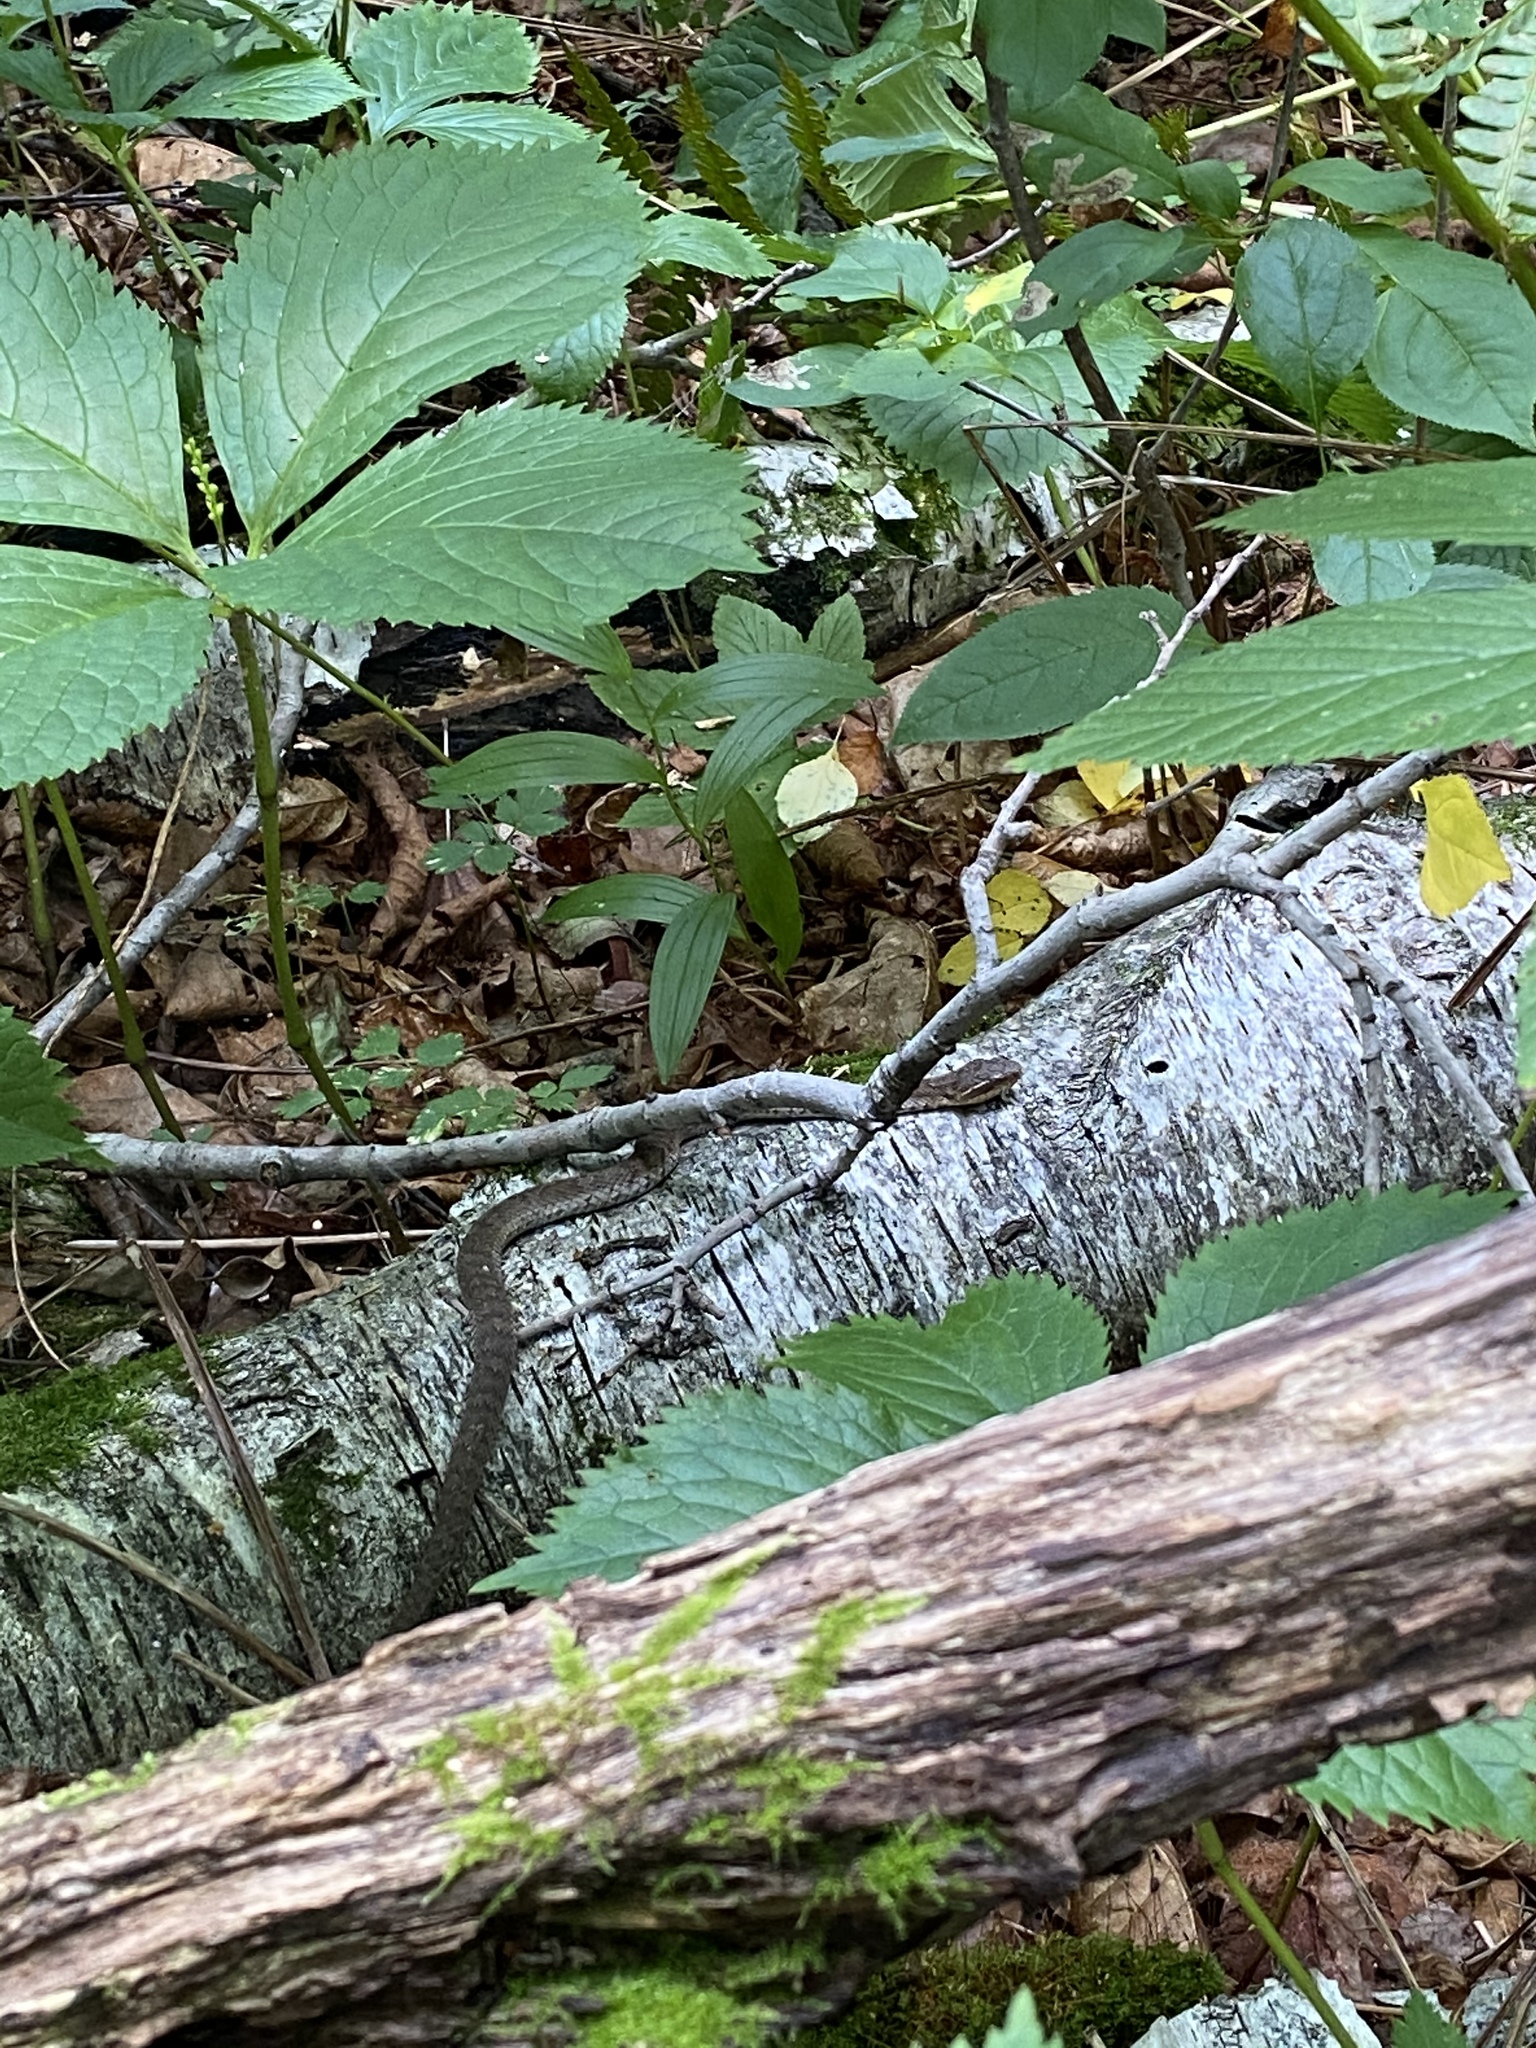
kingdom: Animalia
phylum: Chordata
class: Squamata
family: Viperidae
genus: Gloydius
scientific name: Gloydius ussuriensis
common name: Ussuri mamushi
